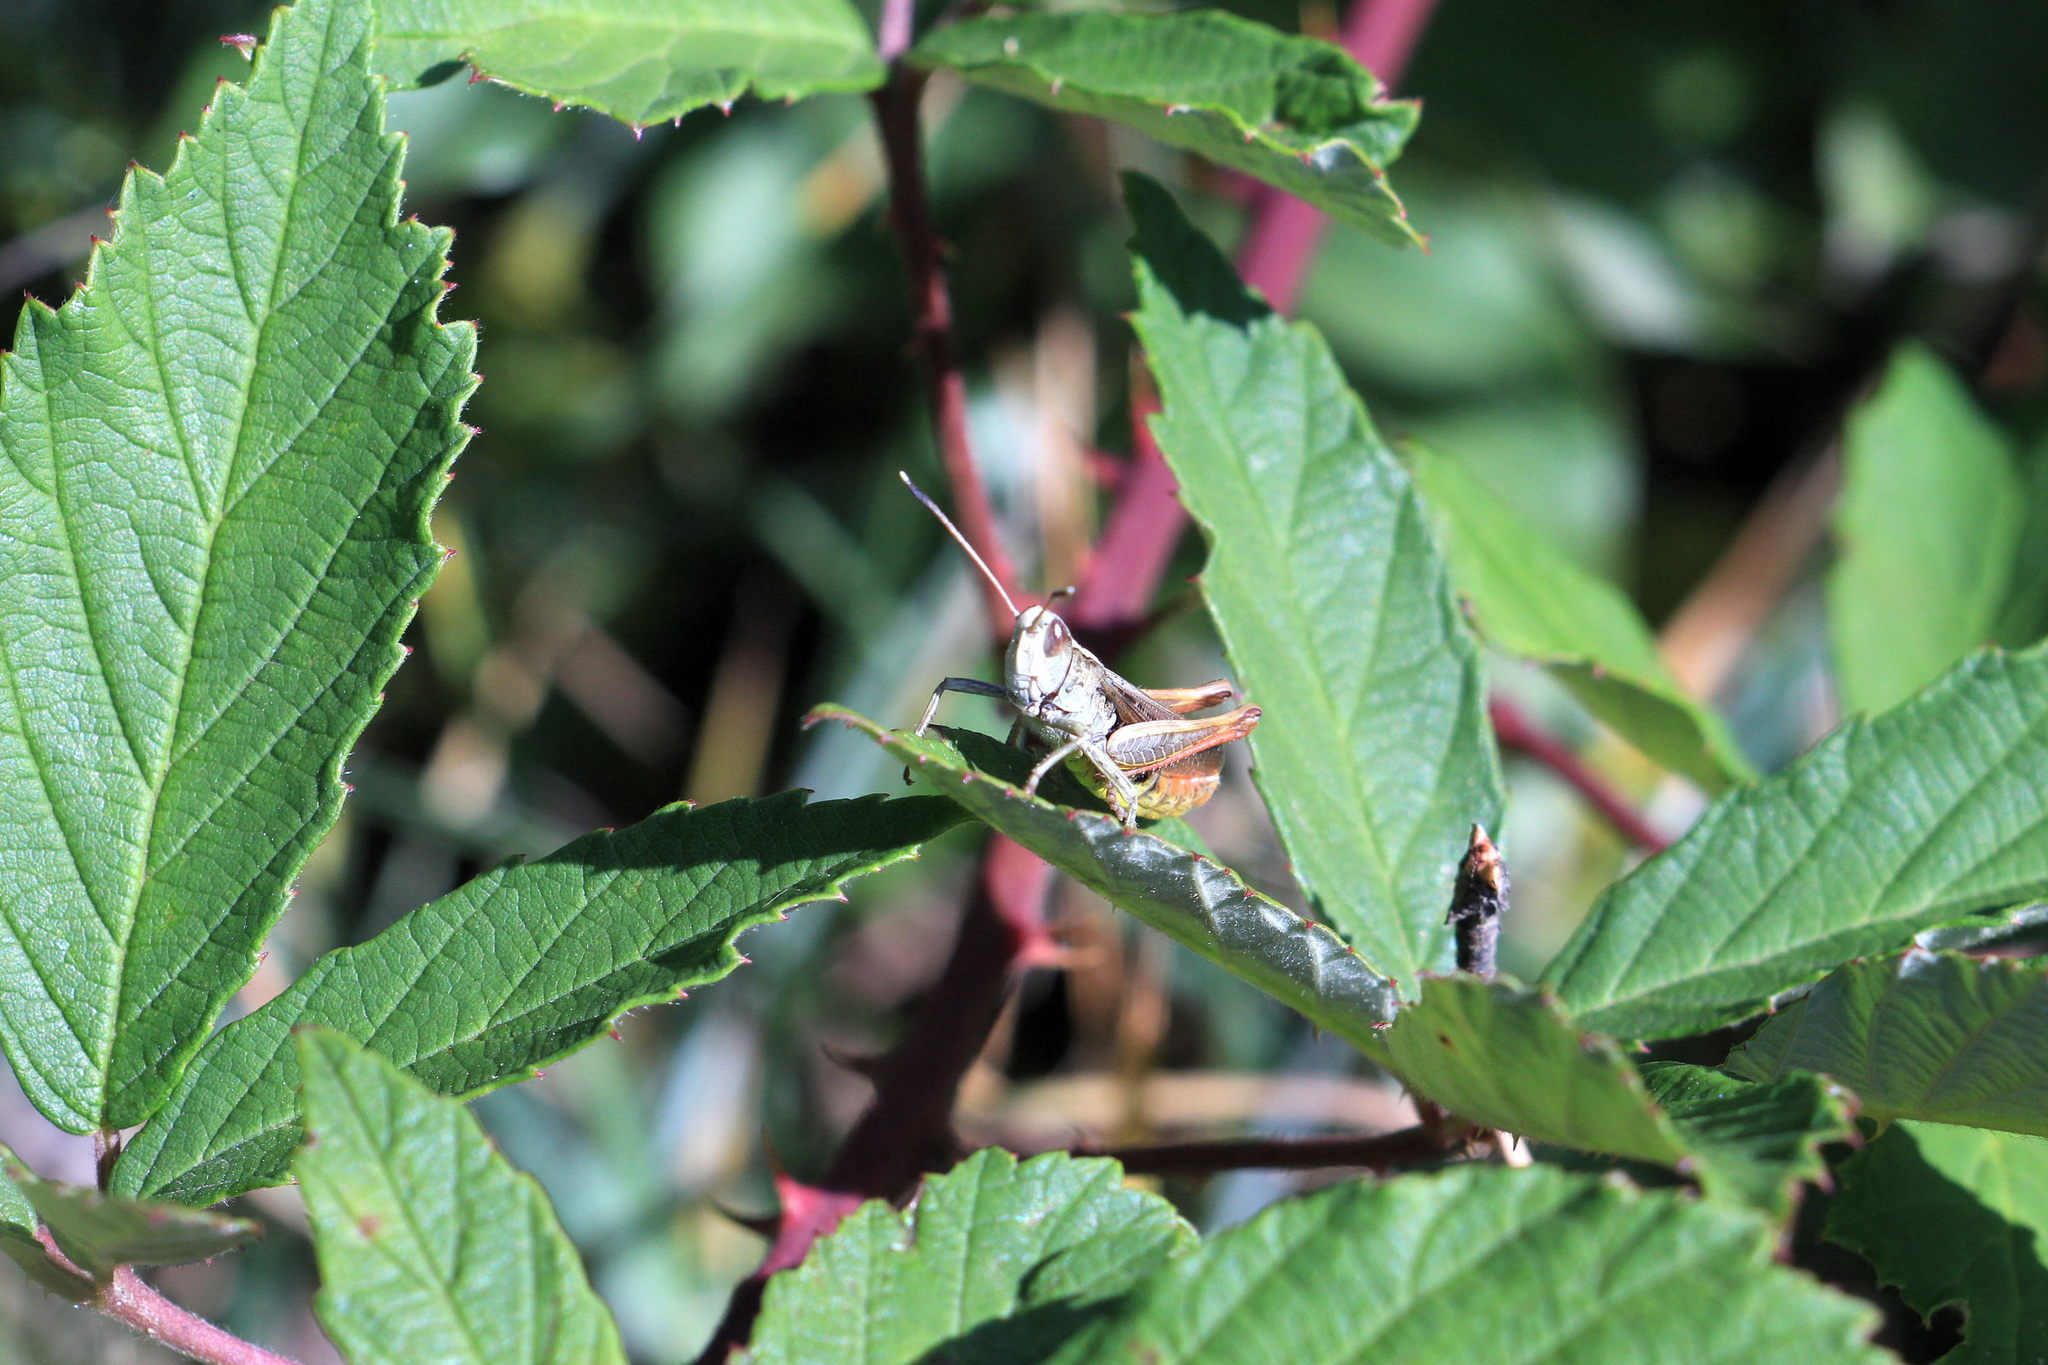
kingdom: Animalia
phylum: Arthropoda
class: Insecta
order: Orthoptera
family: Acrididae
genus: Gomphocerippus
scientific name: Gomphocerippus rufus
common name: Rufous grasshopper
